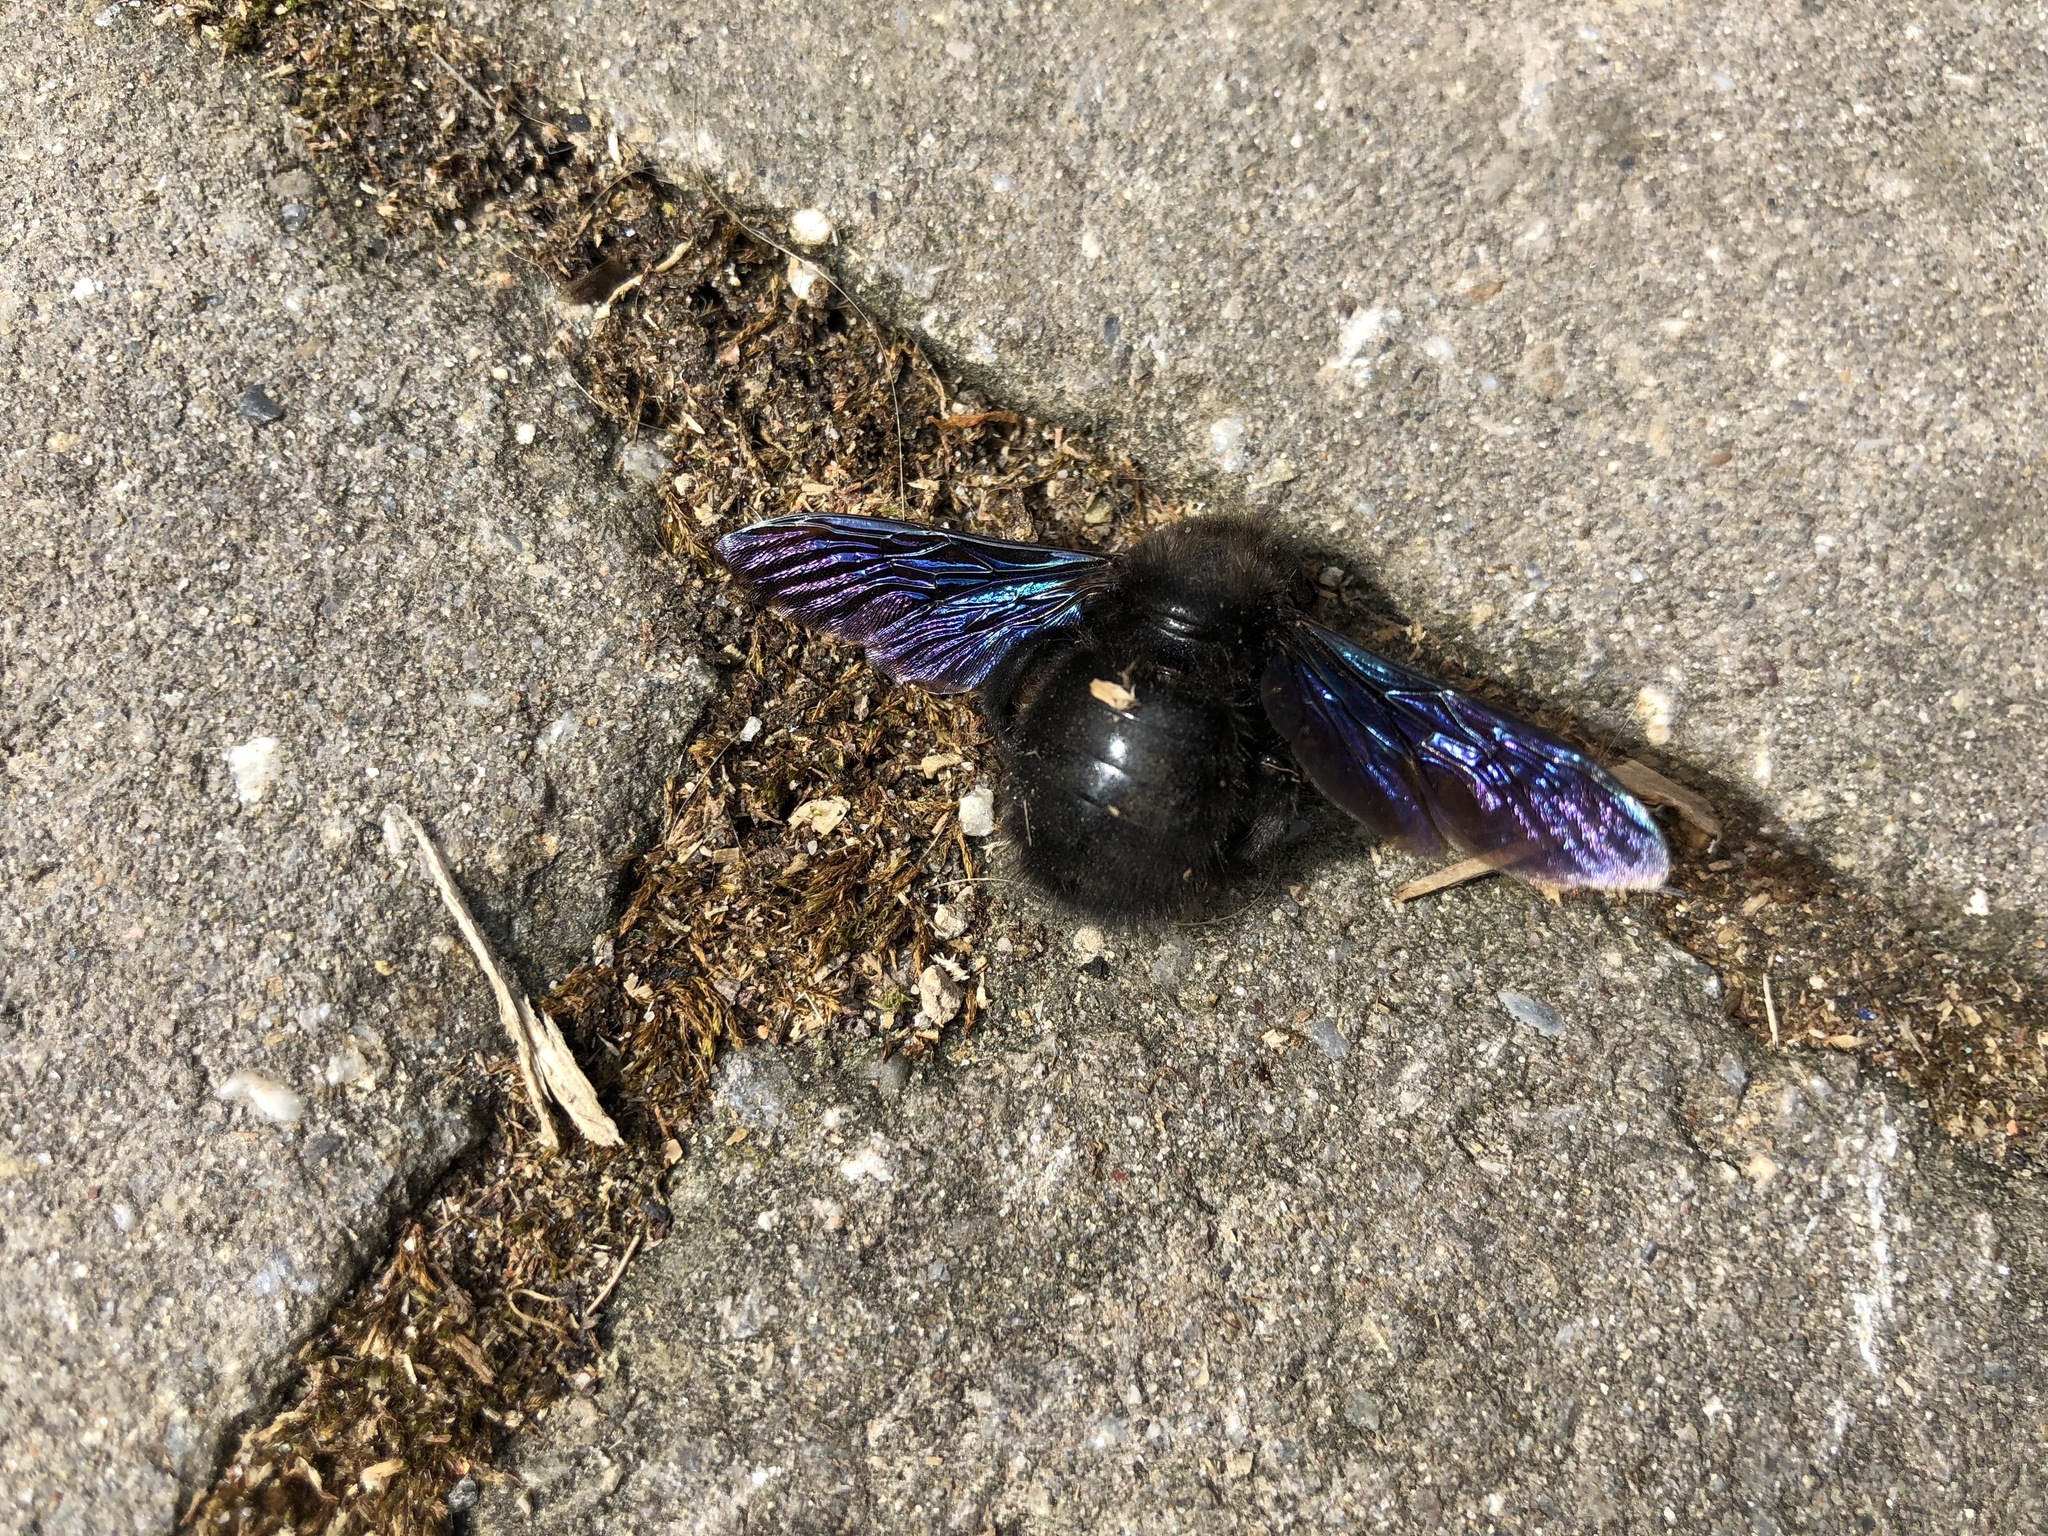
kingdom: Animalia
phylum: Arthropoda
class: Insecta
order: Hymenoptera
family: Apidae
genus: Xylocopa
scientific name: Xylocopa
